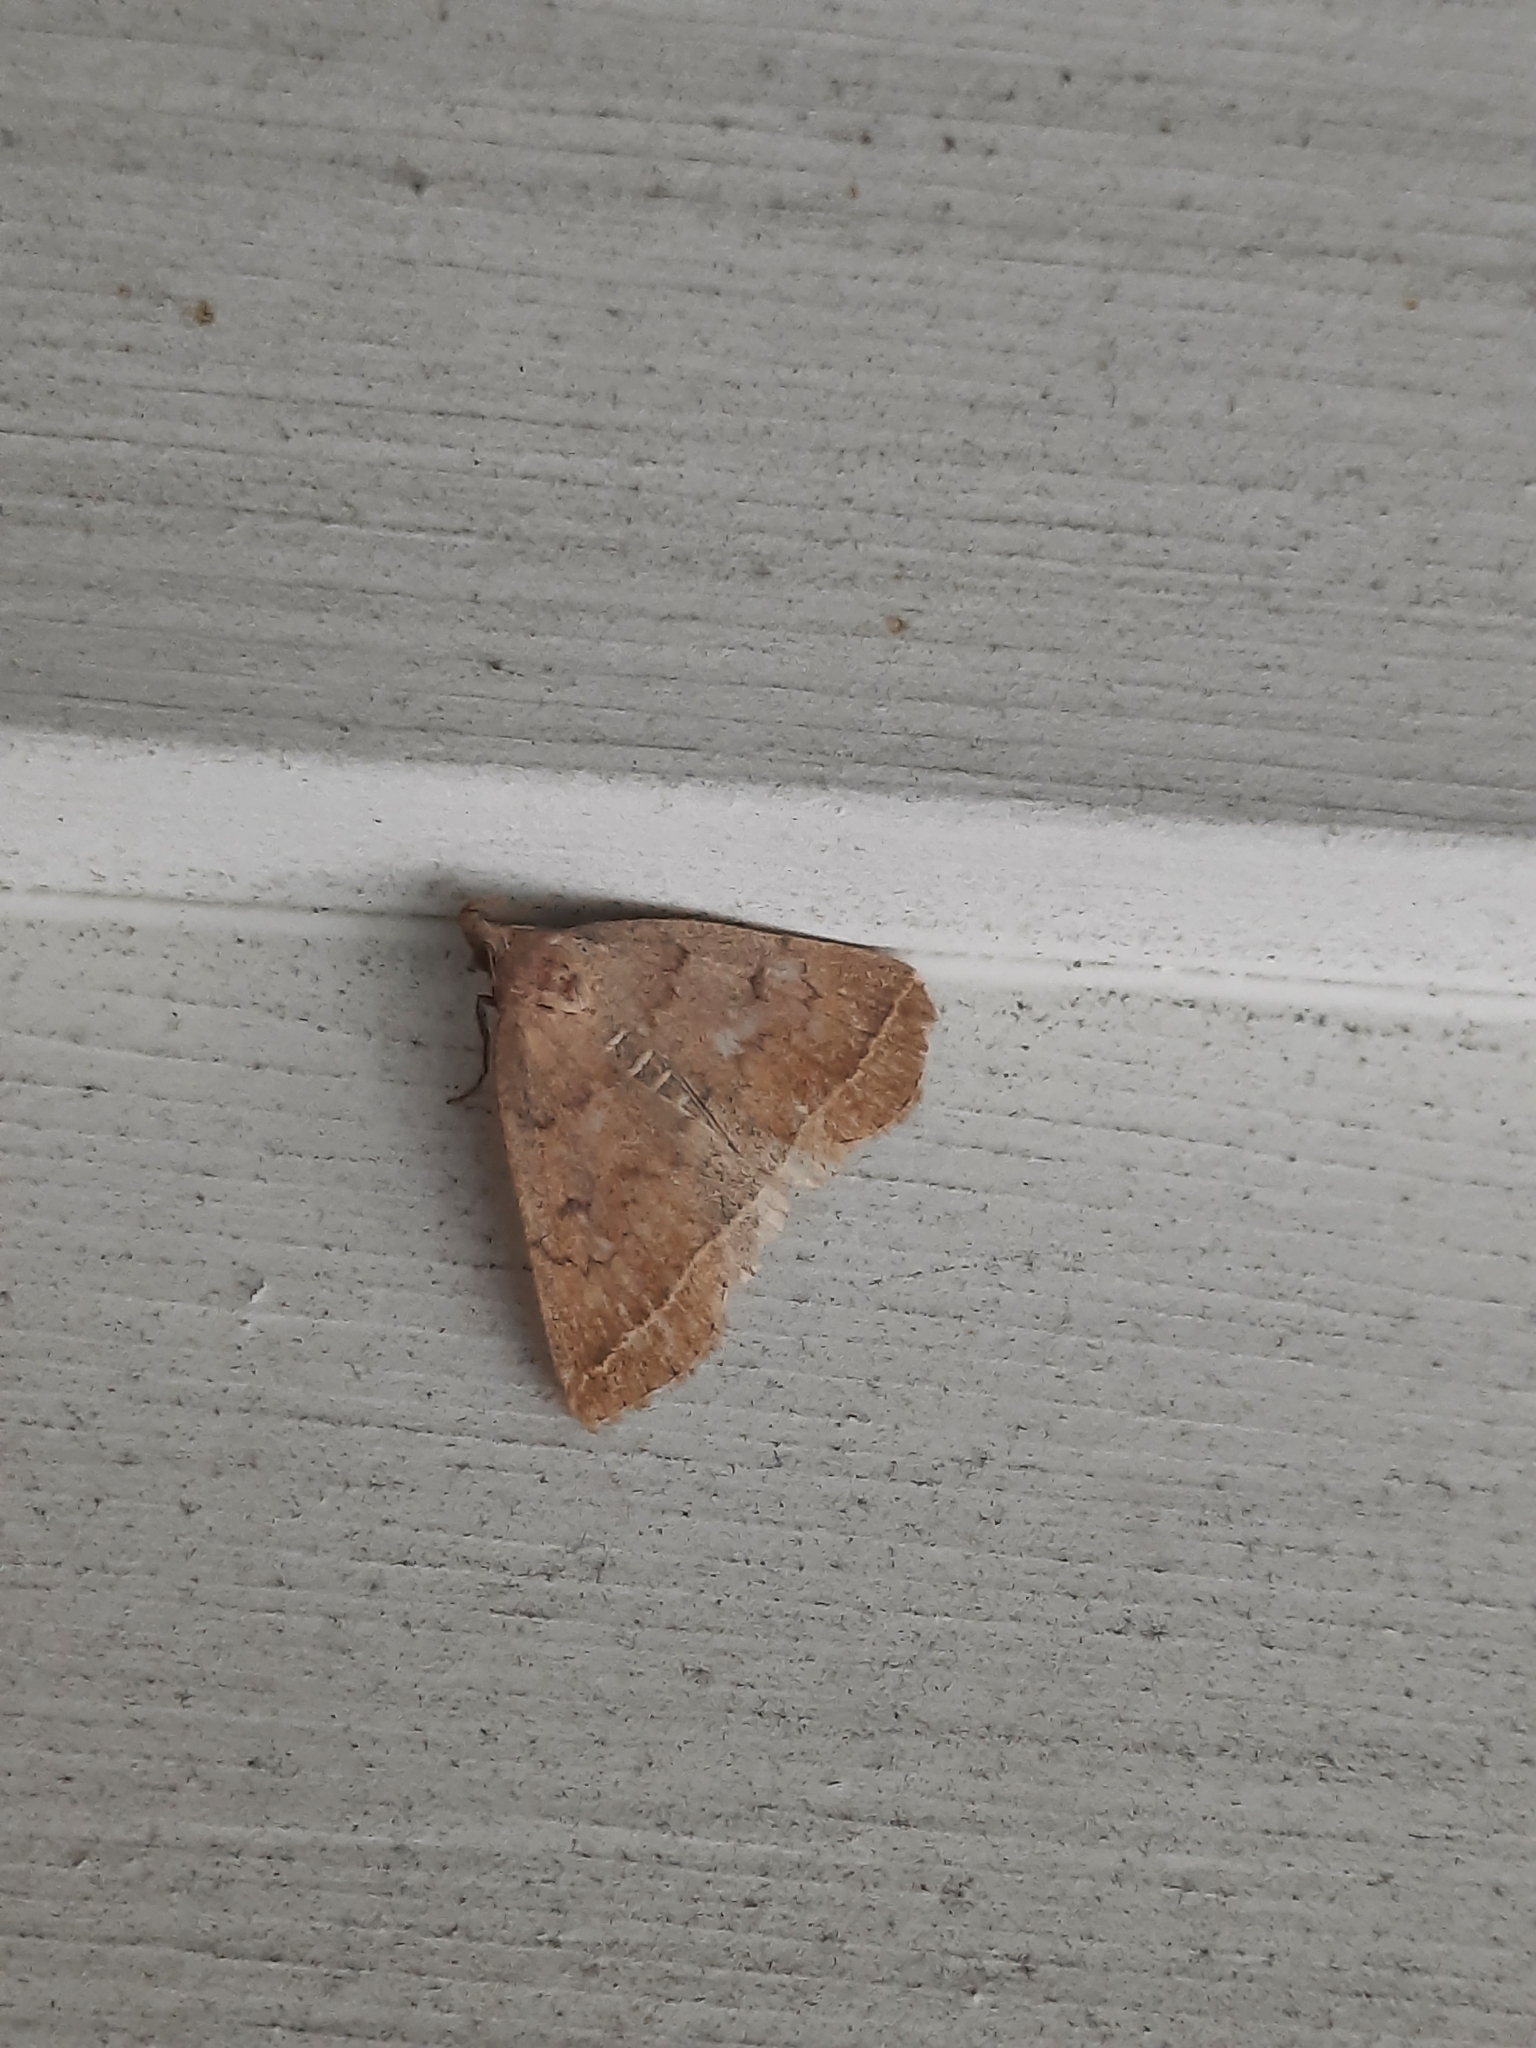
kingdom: Animalia
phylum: Arthropoda
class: Insecta
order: Lepidoptera
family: Erebidae
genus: Zanclognatha
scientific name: Zanclognatha jacchusalis
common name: Yellowish zanclognatha
